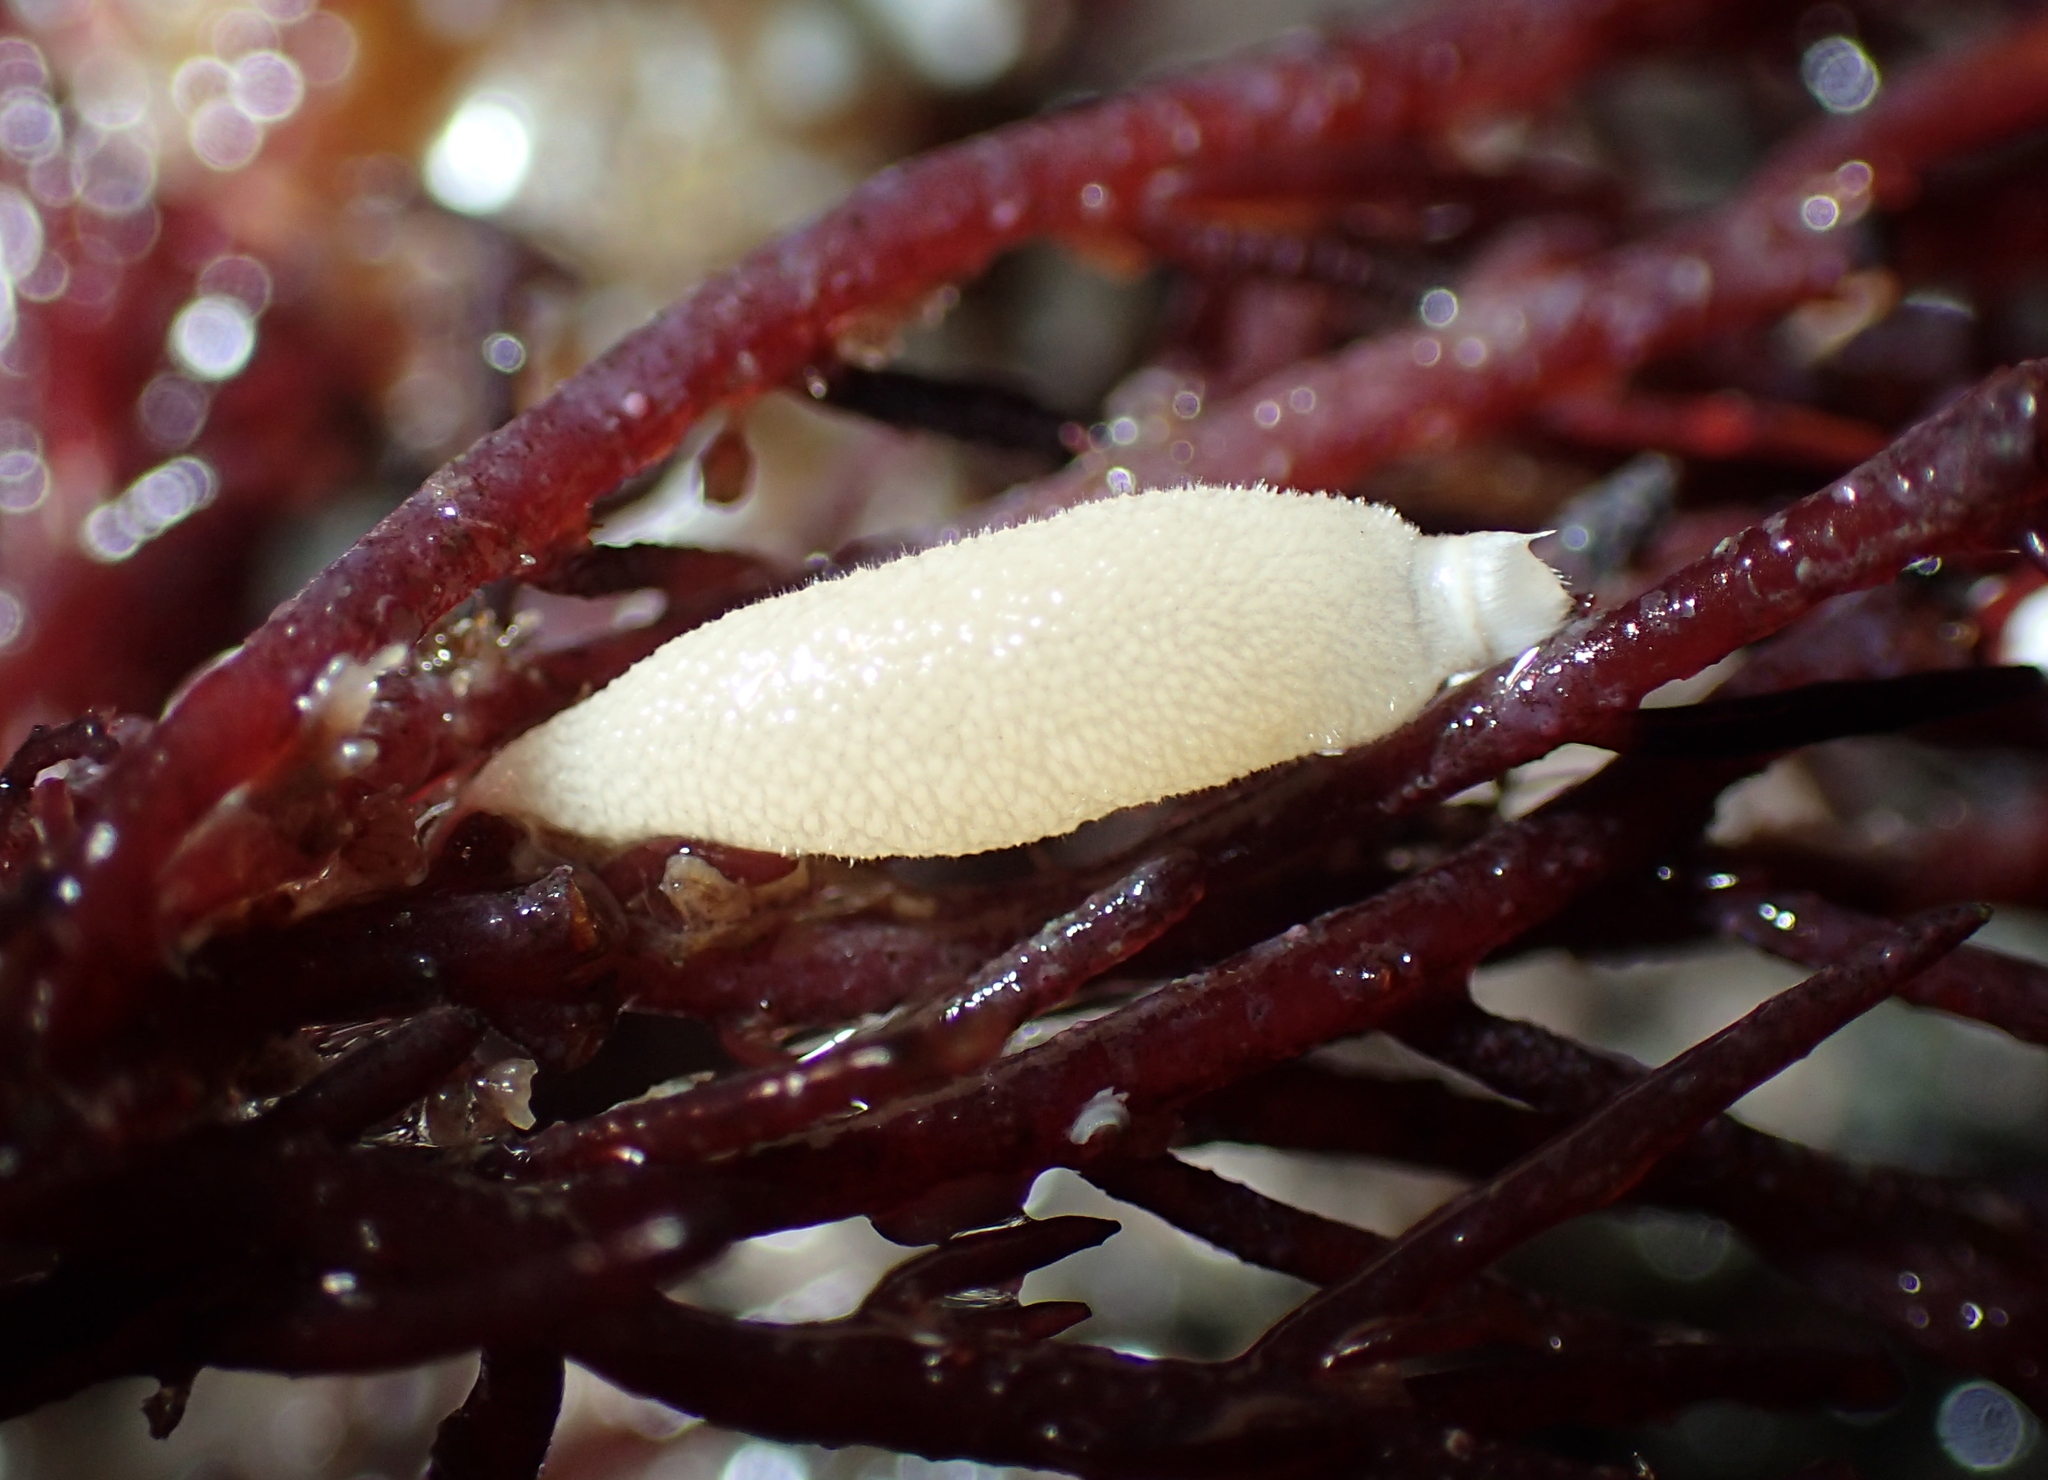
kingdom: Animalia
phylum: Porifera
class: Calcarea
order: Leucosolenida
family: Syconidae
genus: Sycon
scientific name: Sycon ciliatum
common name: Ciliated sponge
